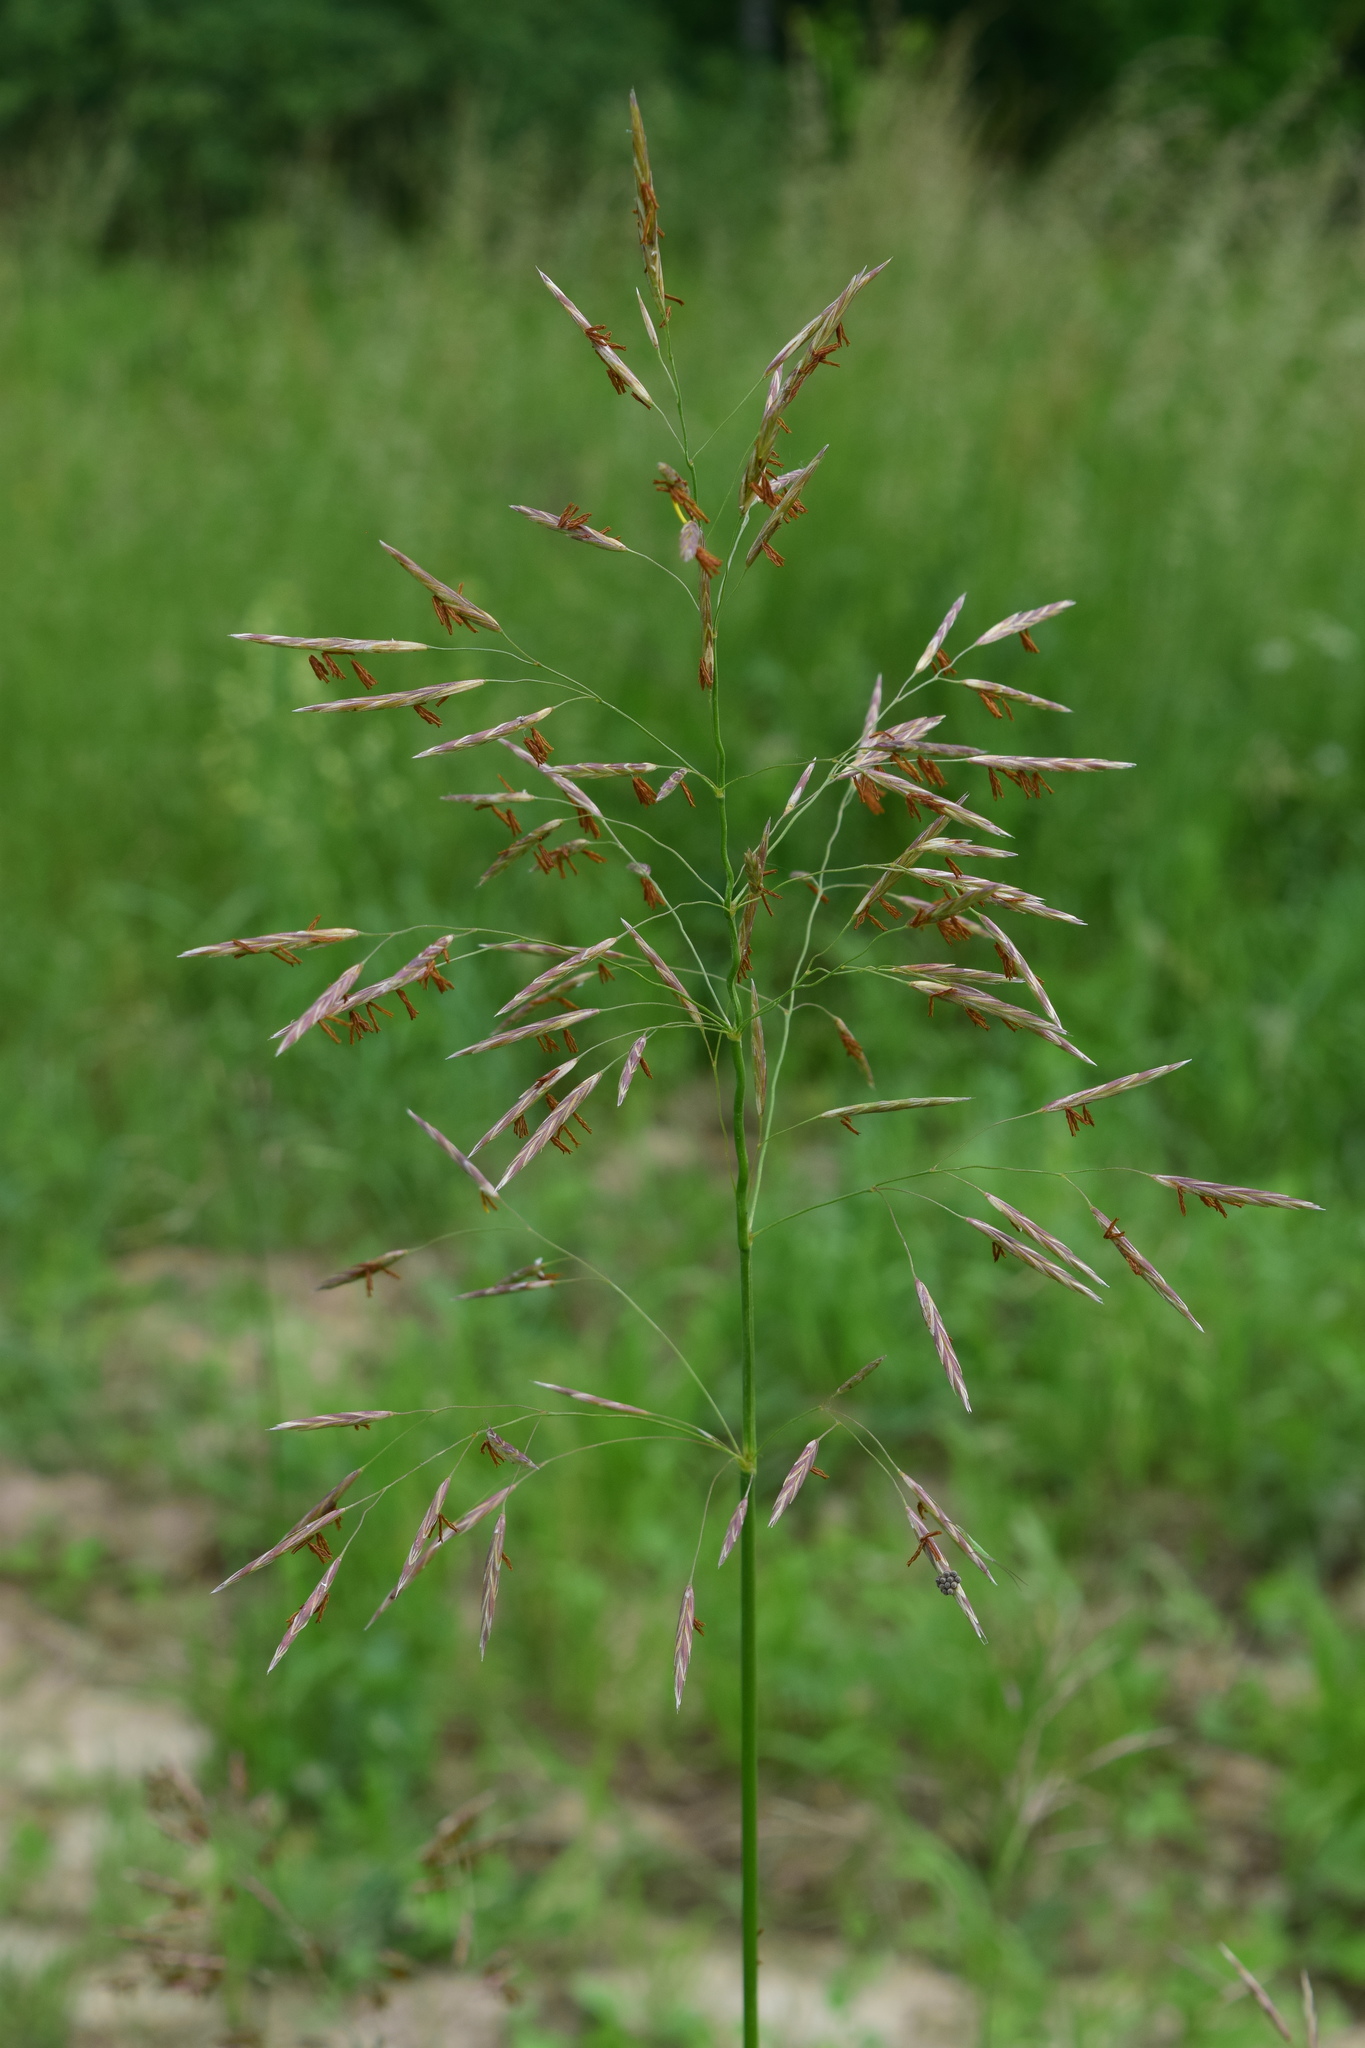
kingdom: Plantae
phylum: Tracheophyta
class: Liliopsida
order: Poales
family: Poaceae
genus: Bromus
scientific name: Bromus inermis
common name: Smooth brome
